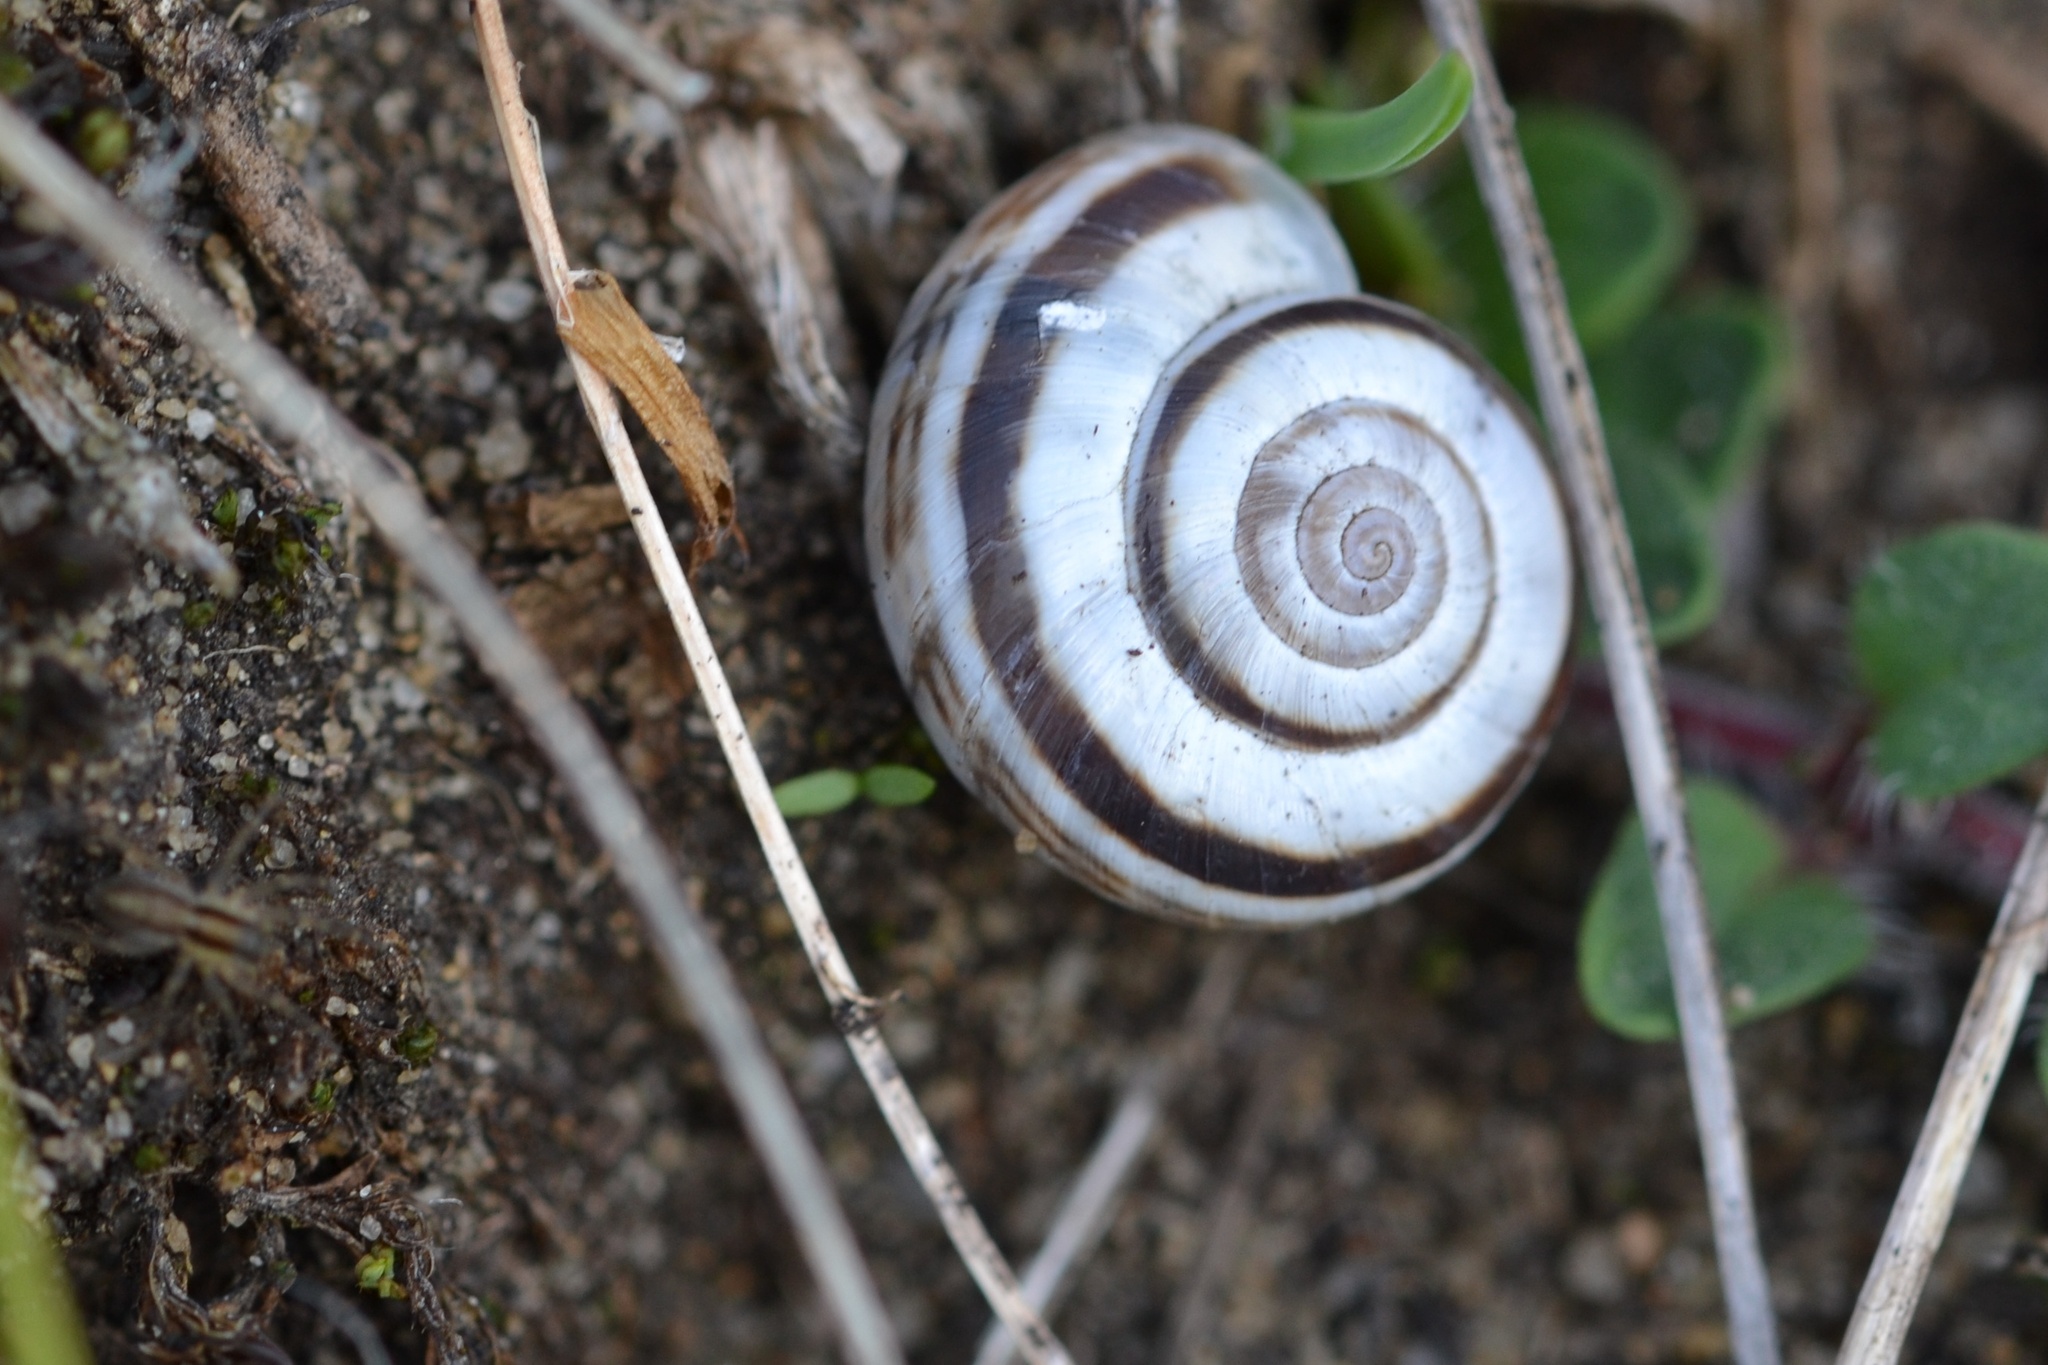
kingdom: Animalia
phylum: Mollusca
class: Gastropoda
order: Stylommatophora
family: Geomitridae
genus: Xerolenta
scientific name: Xerolenta obvia
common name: White heath snail
